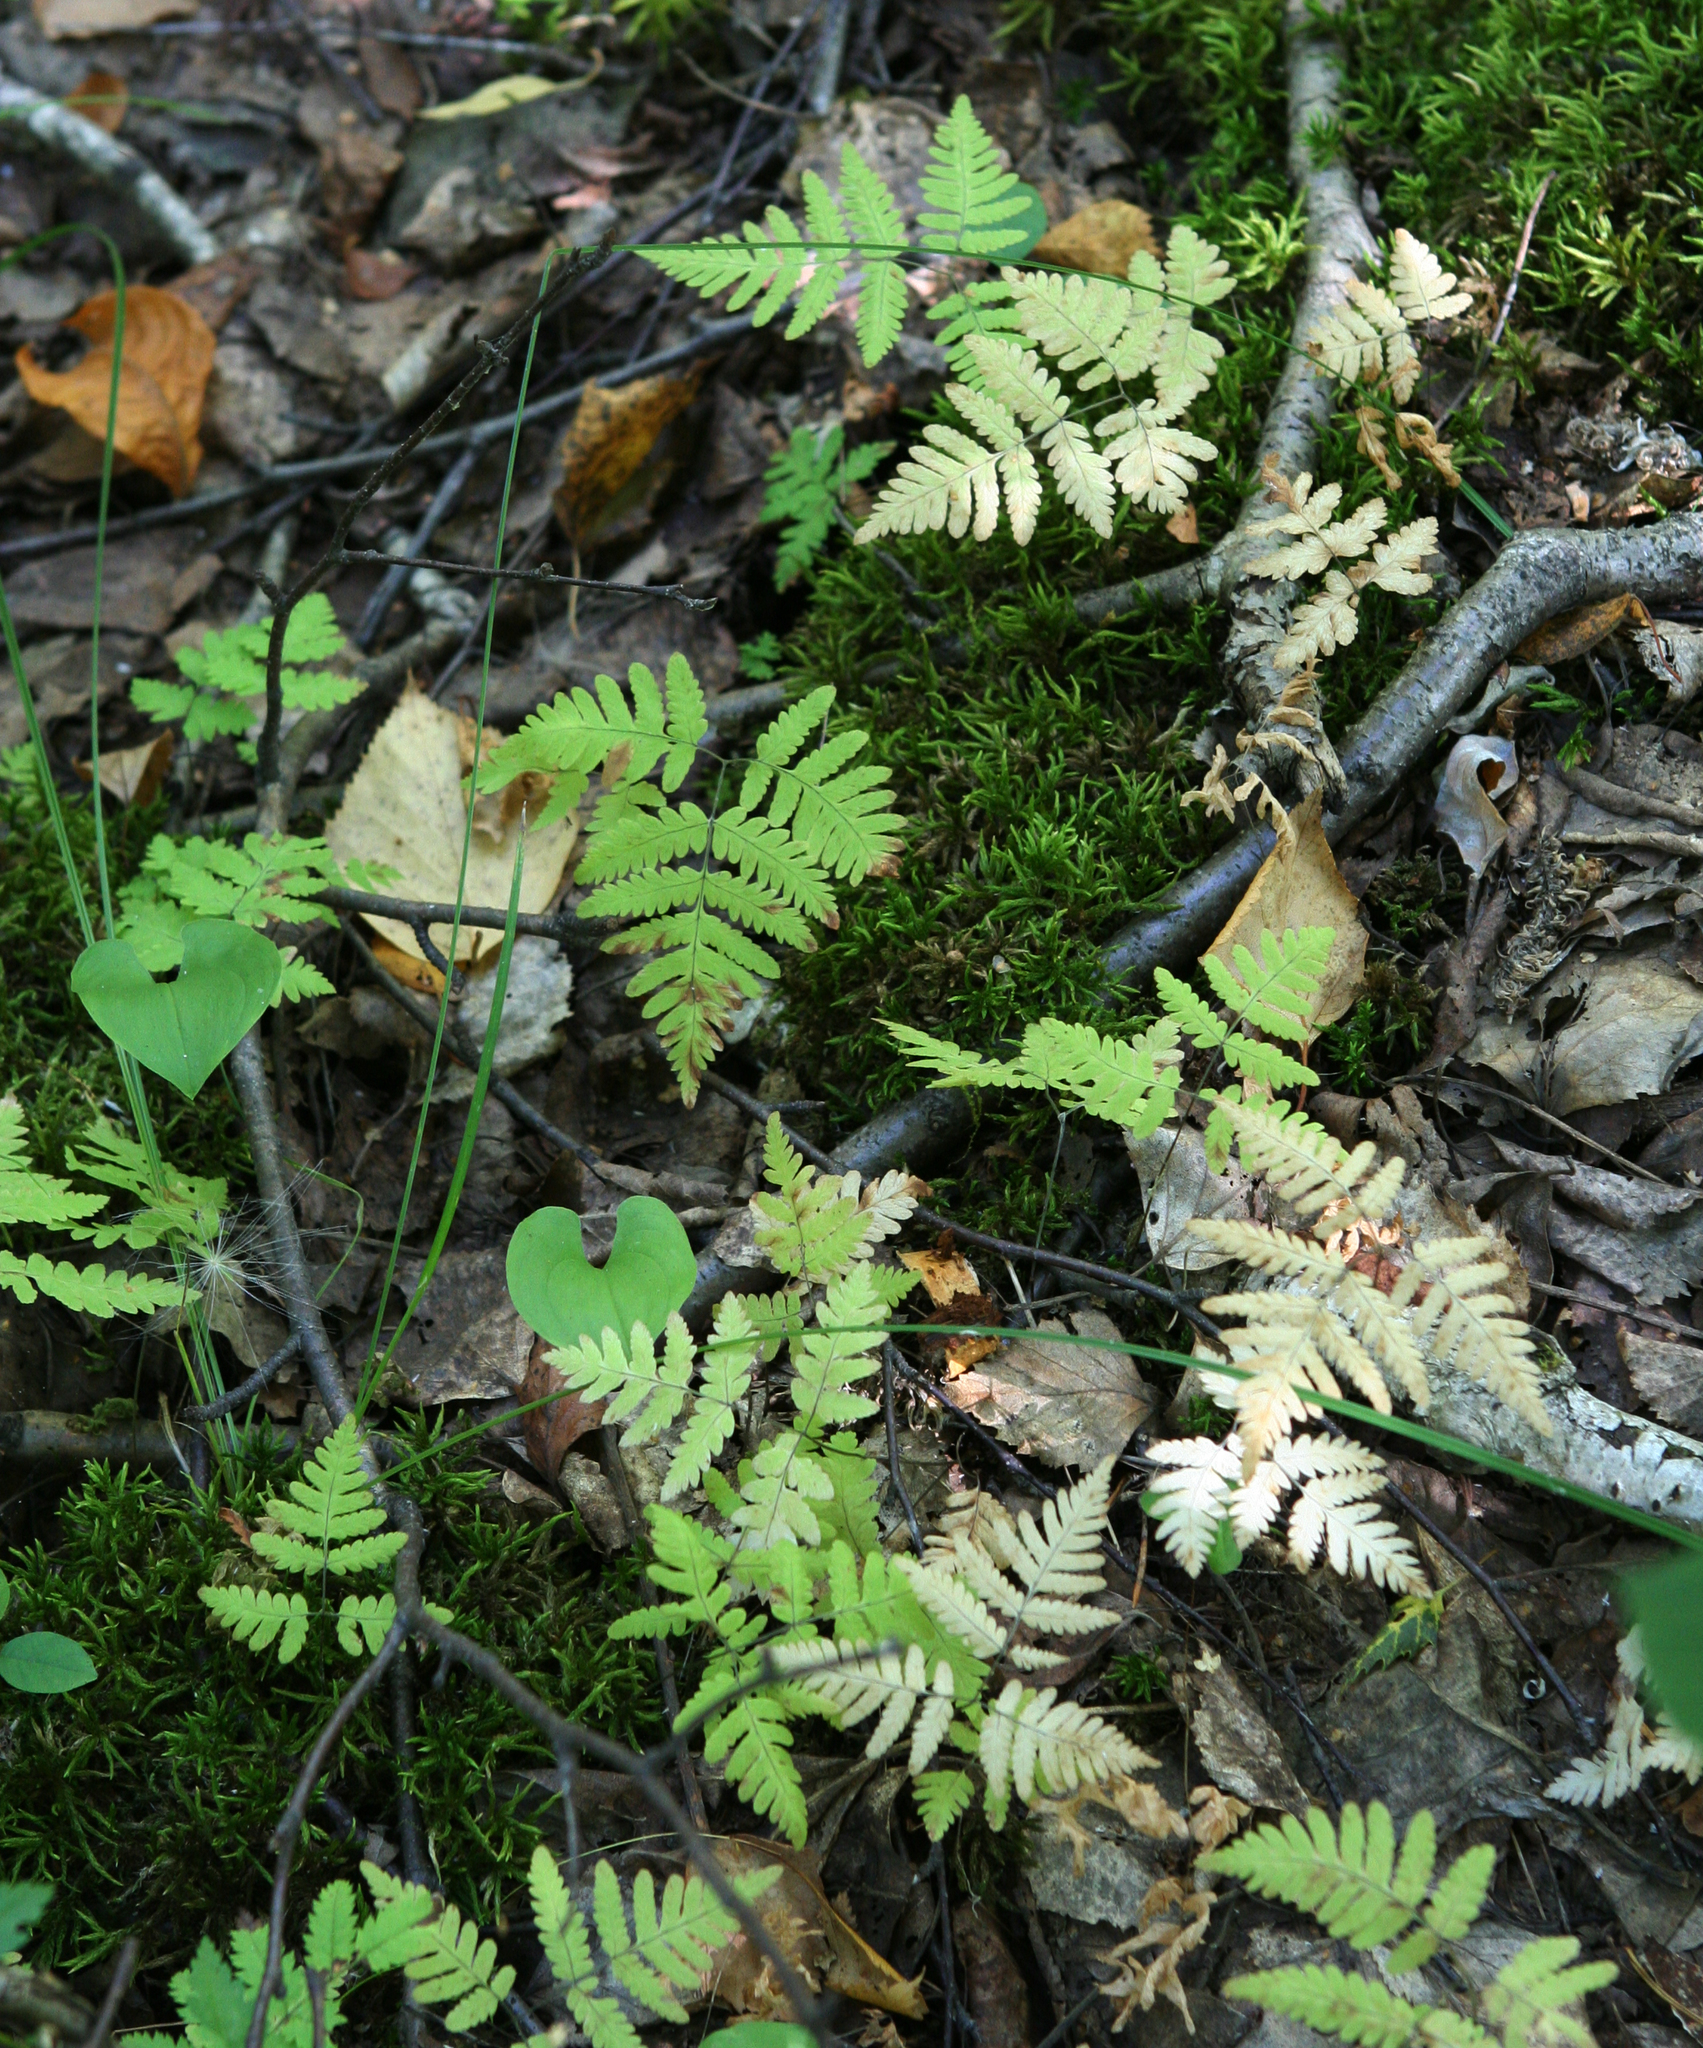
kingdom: Plantae
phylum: Tracheophyta
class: Polypodiopsida
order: Polypodiales
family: Cystopteridaceae
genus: Gymnocarpium
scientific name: Gymnocarpium dryopteris
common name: Oak fern
